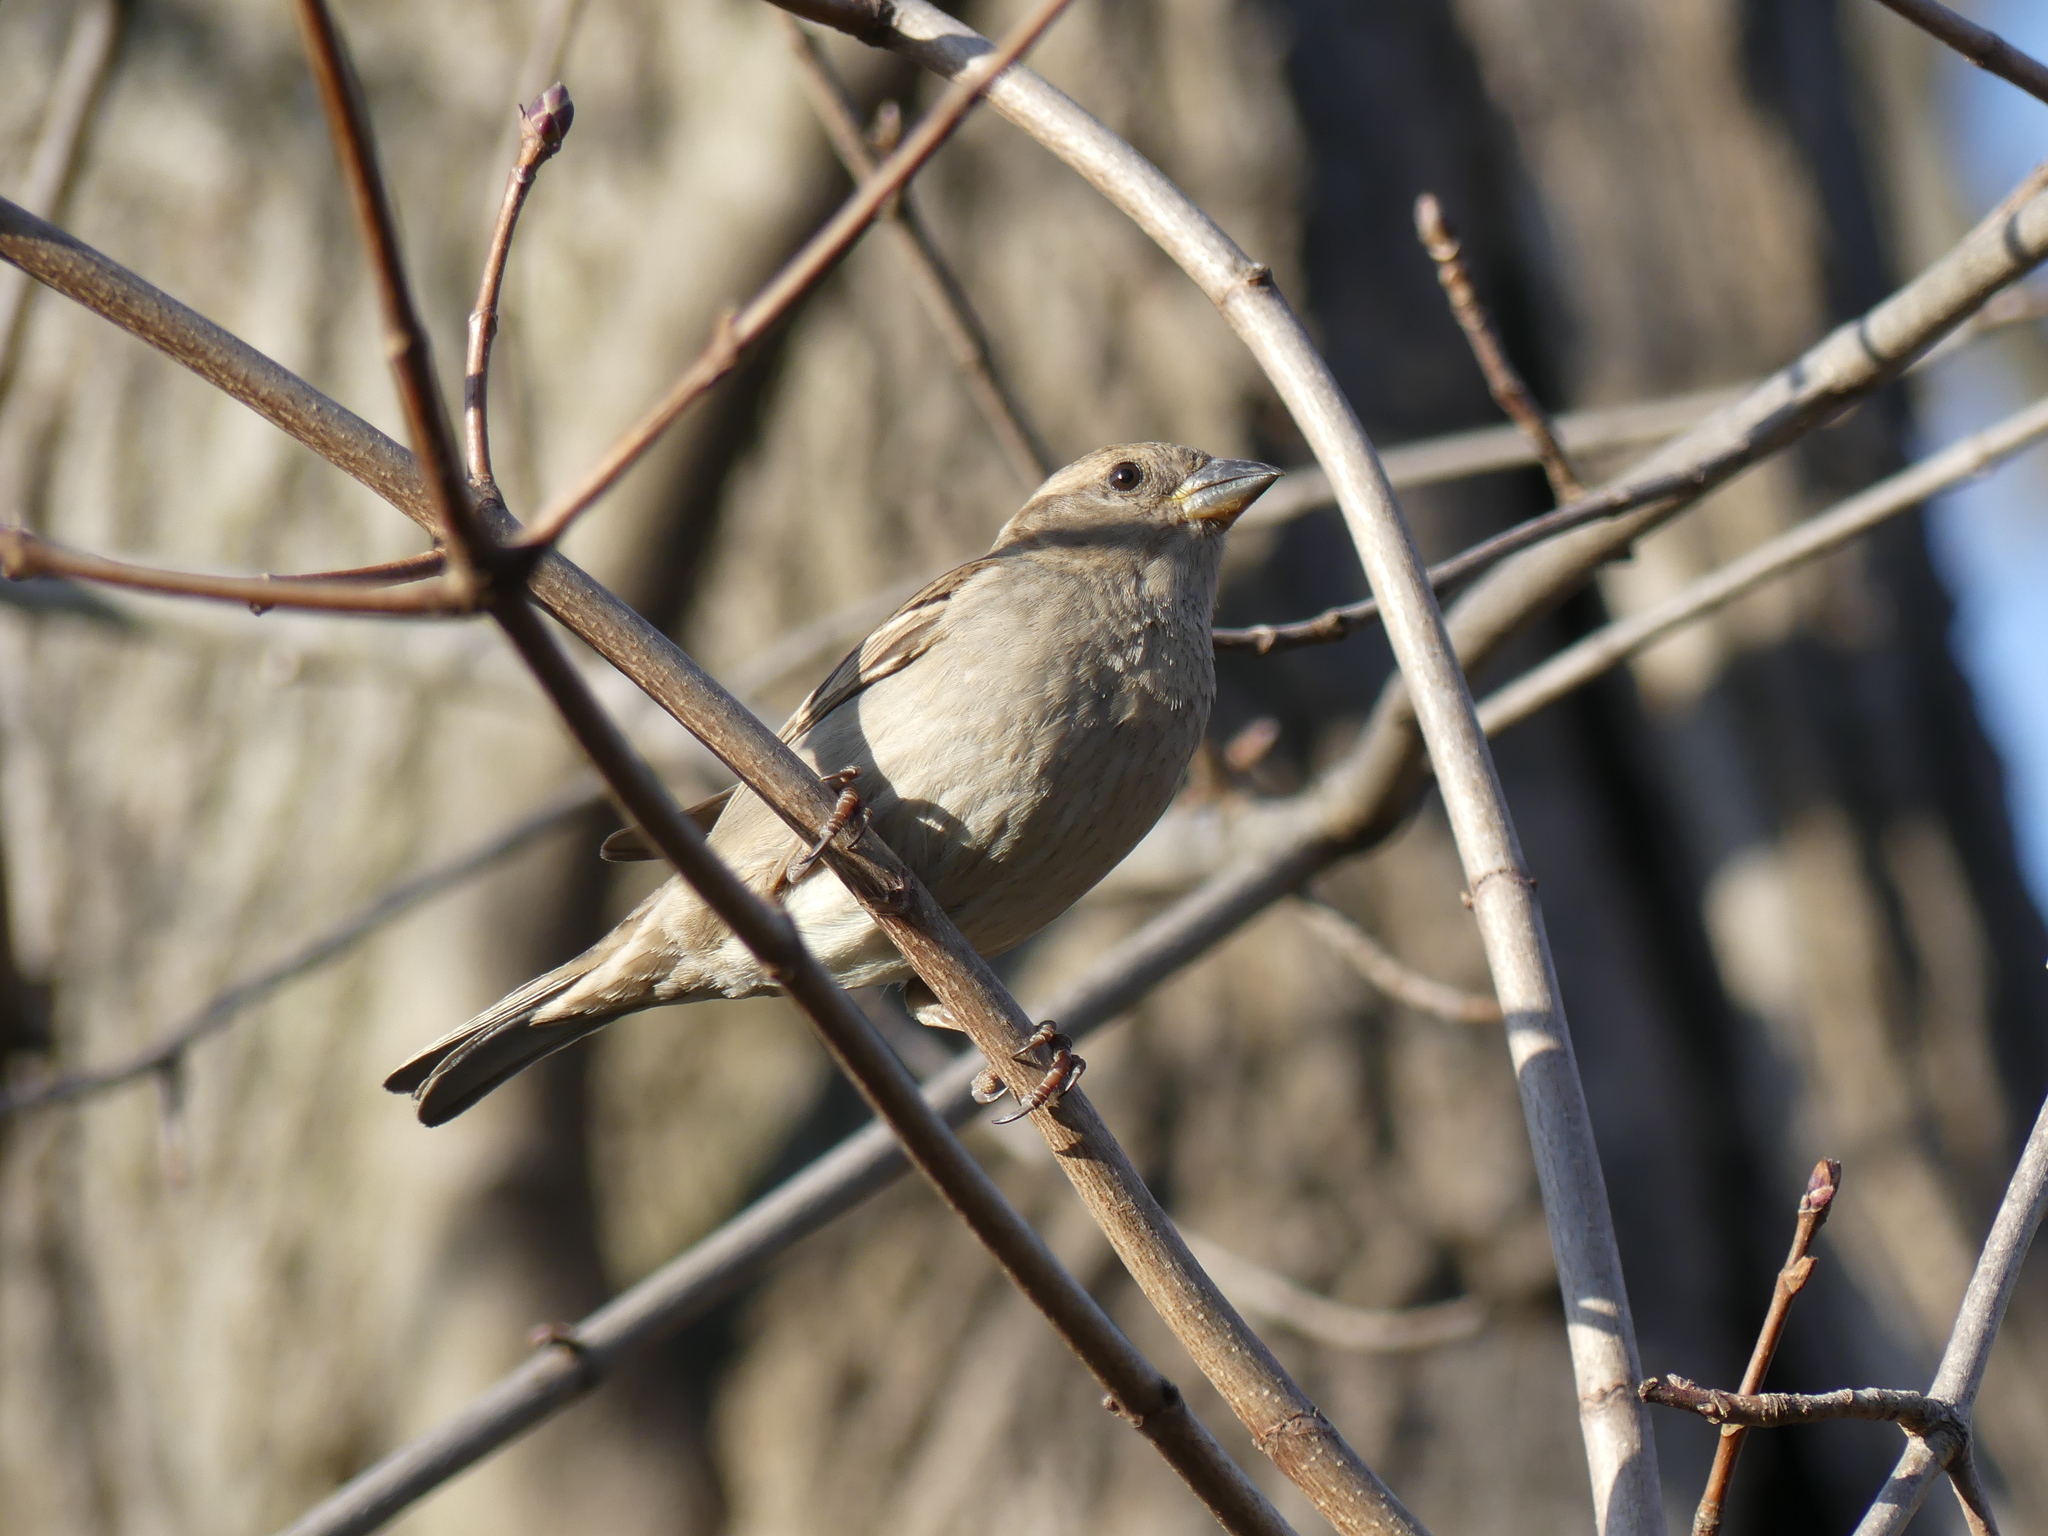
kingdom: Animalia
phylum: Chordata
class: Aves
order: Passeriformes
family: Passeridae
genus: Passer
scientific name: Passer domesticus
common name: House sparrow
